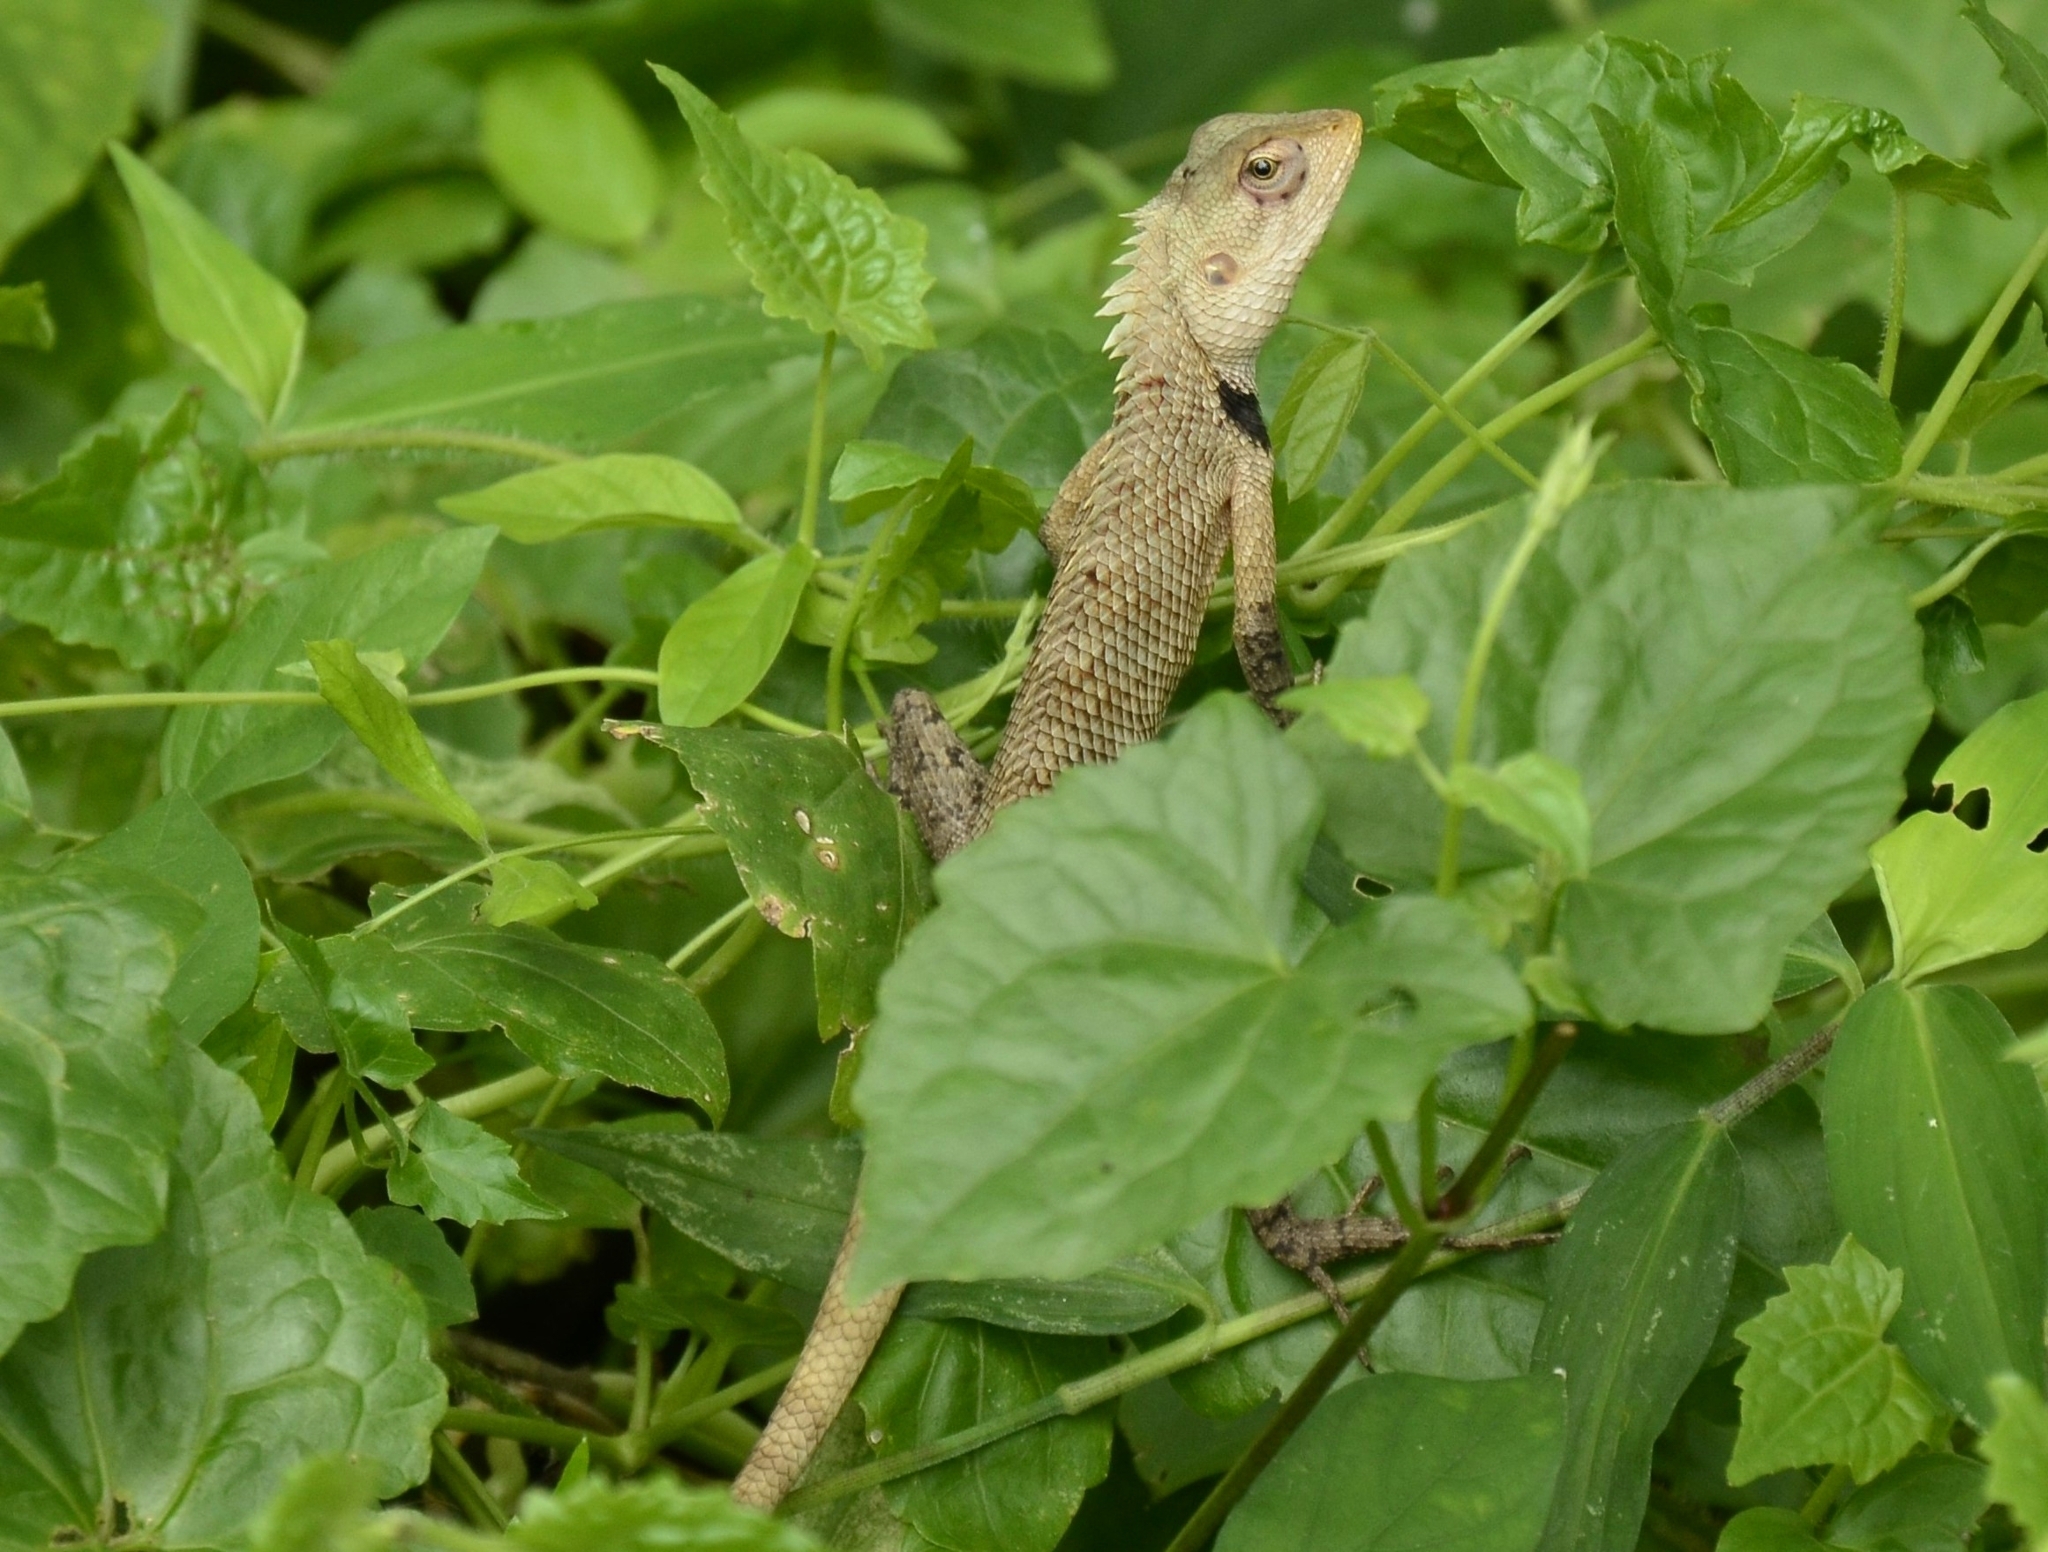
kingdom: Animalia
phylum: Chordata
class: Squamata
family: Agamidae
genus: Calotes
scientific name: Calotes versicolor
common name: Oriental garden lizard
